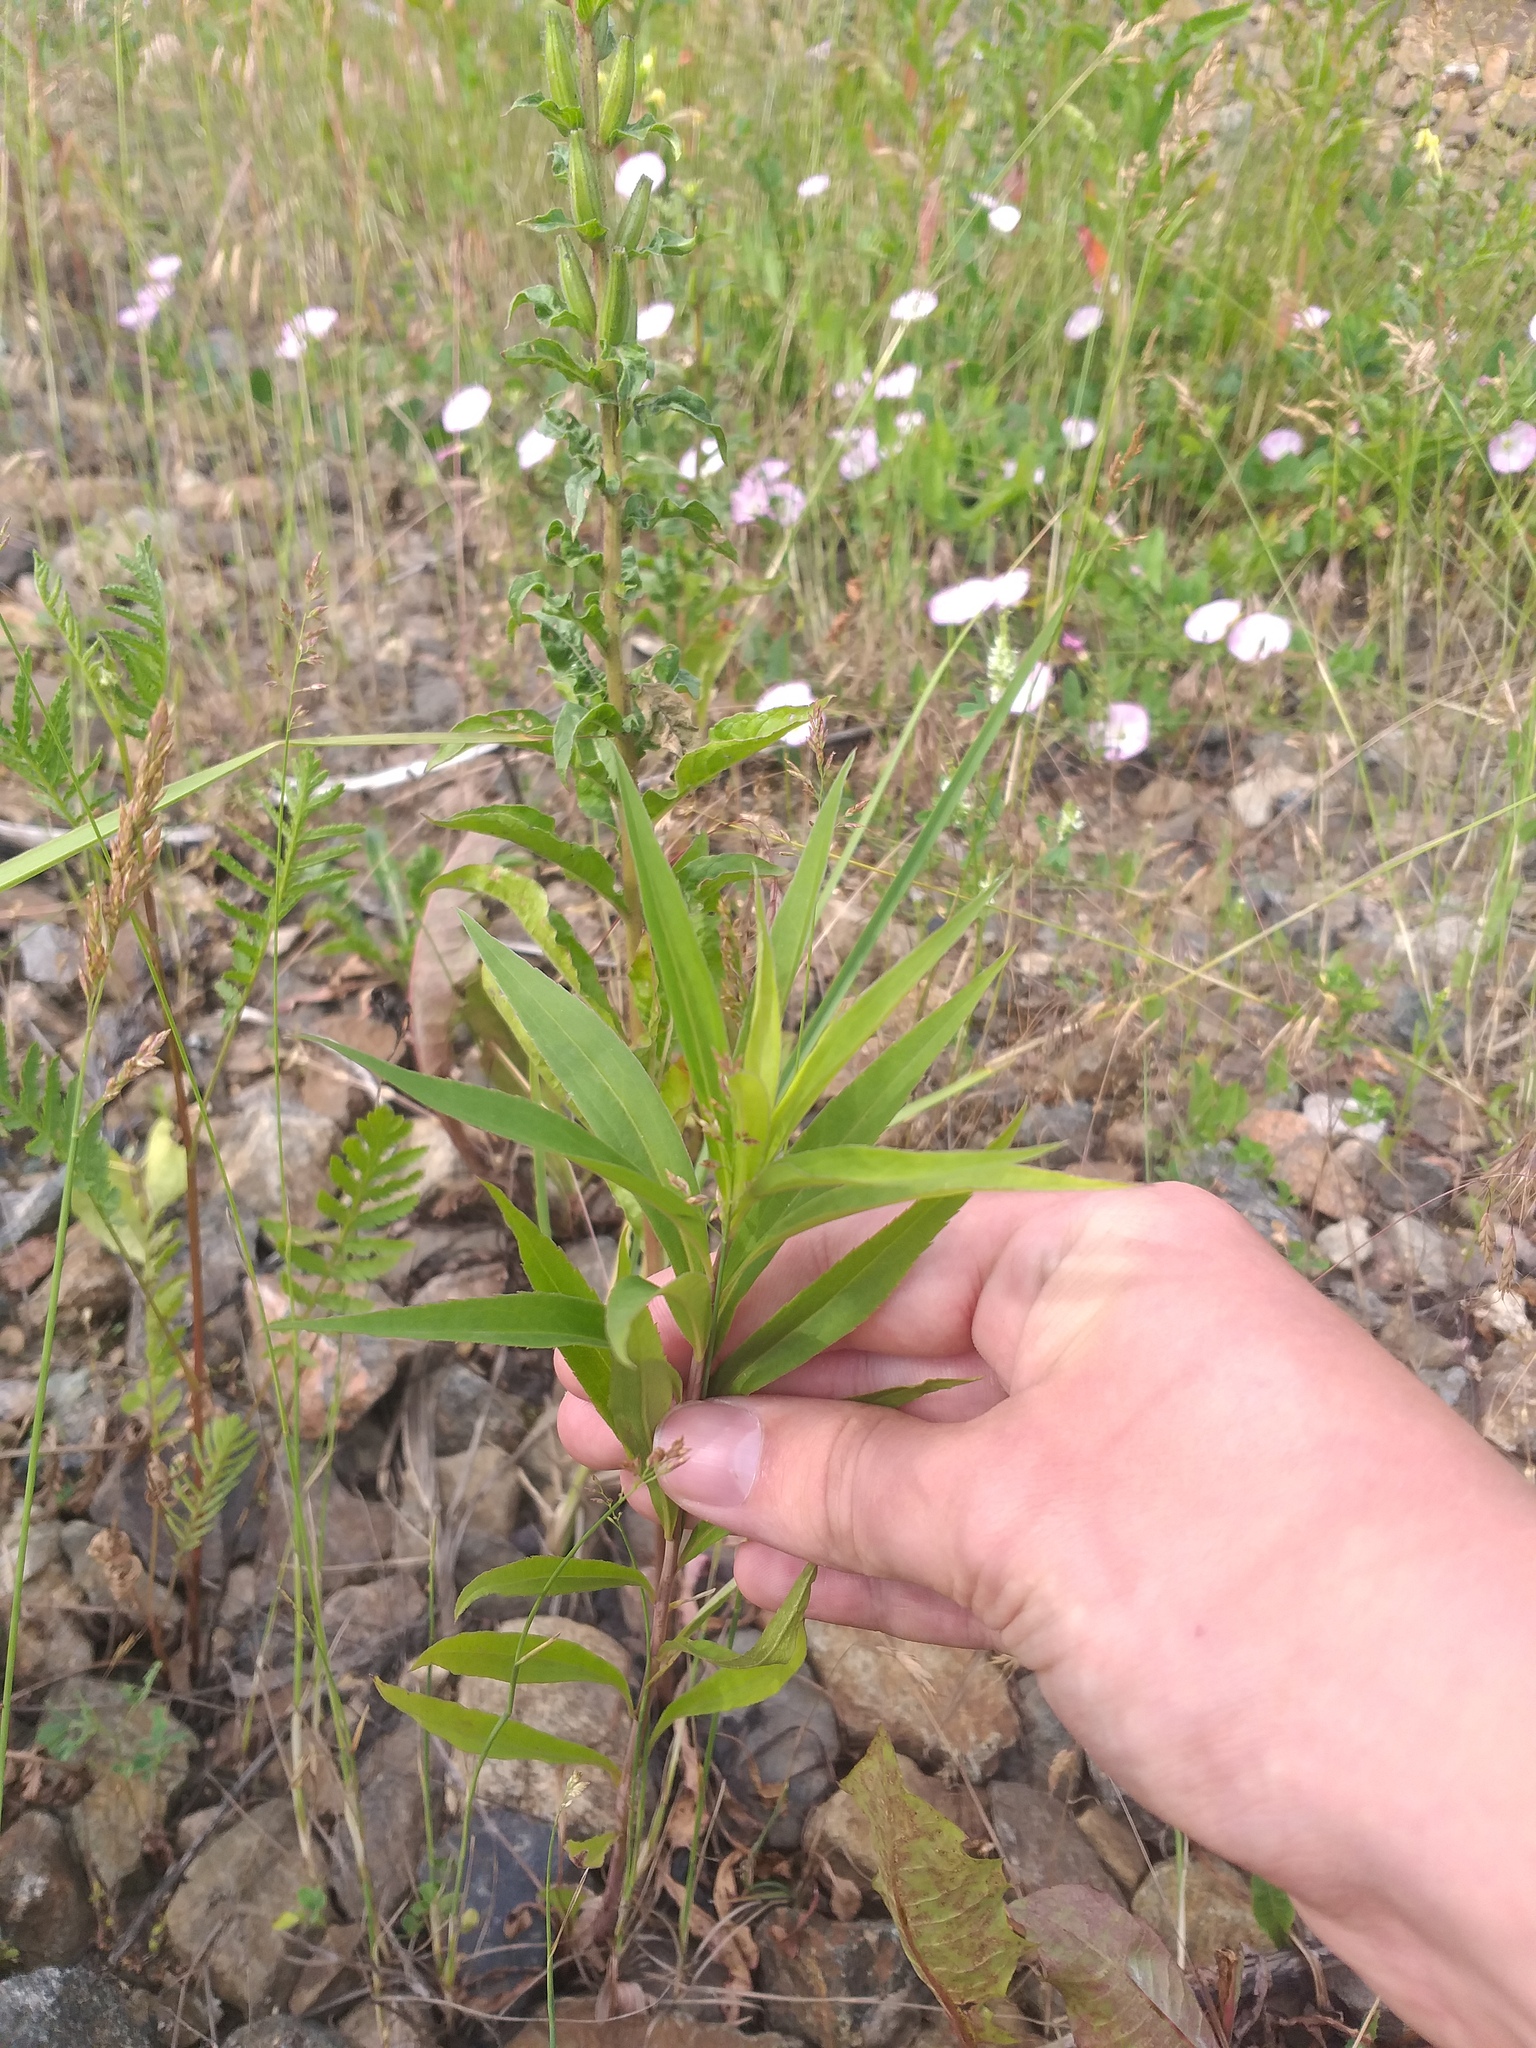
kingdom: Plantae
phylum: Tracheophyta
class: Magnoliopsida
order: Asterales
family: Asteraceae
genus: Solidago
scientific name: Solidago gigantea
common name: Giant goldenrod
